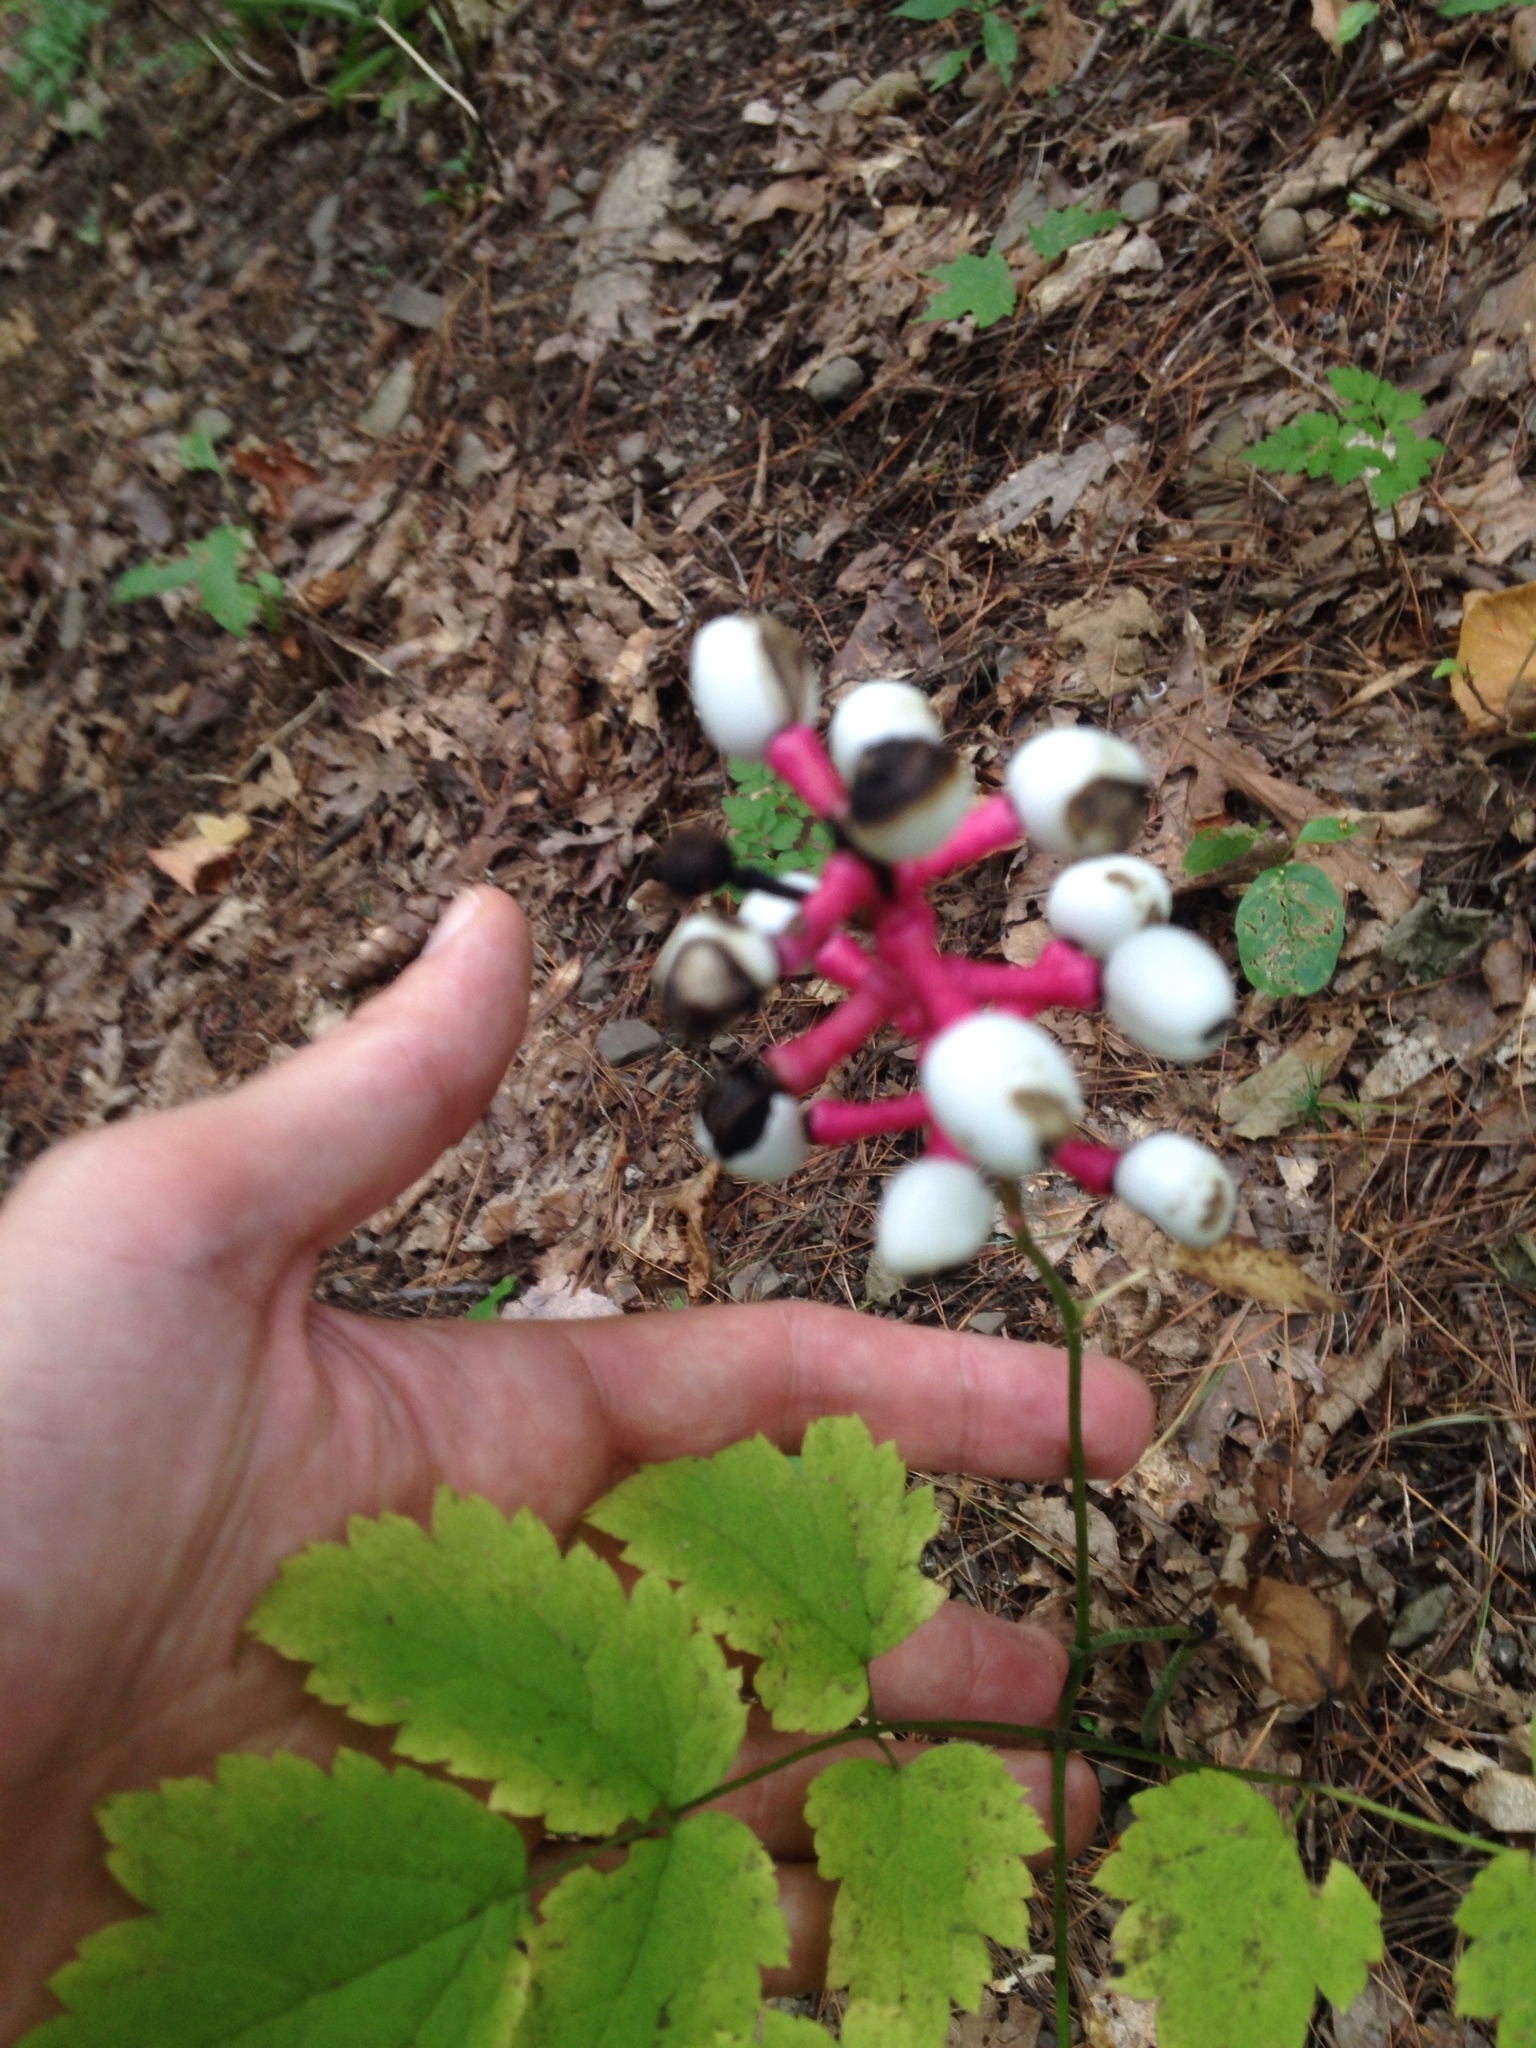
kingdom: Plantae
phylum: Tracheophyta
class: Magnoliopsida
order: Ranunculales
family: Ranunculaceae
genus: Actaea
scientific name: Actaea pachypoda
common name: Doll's-eyes
